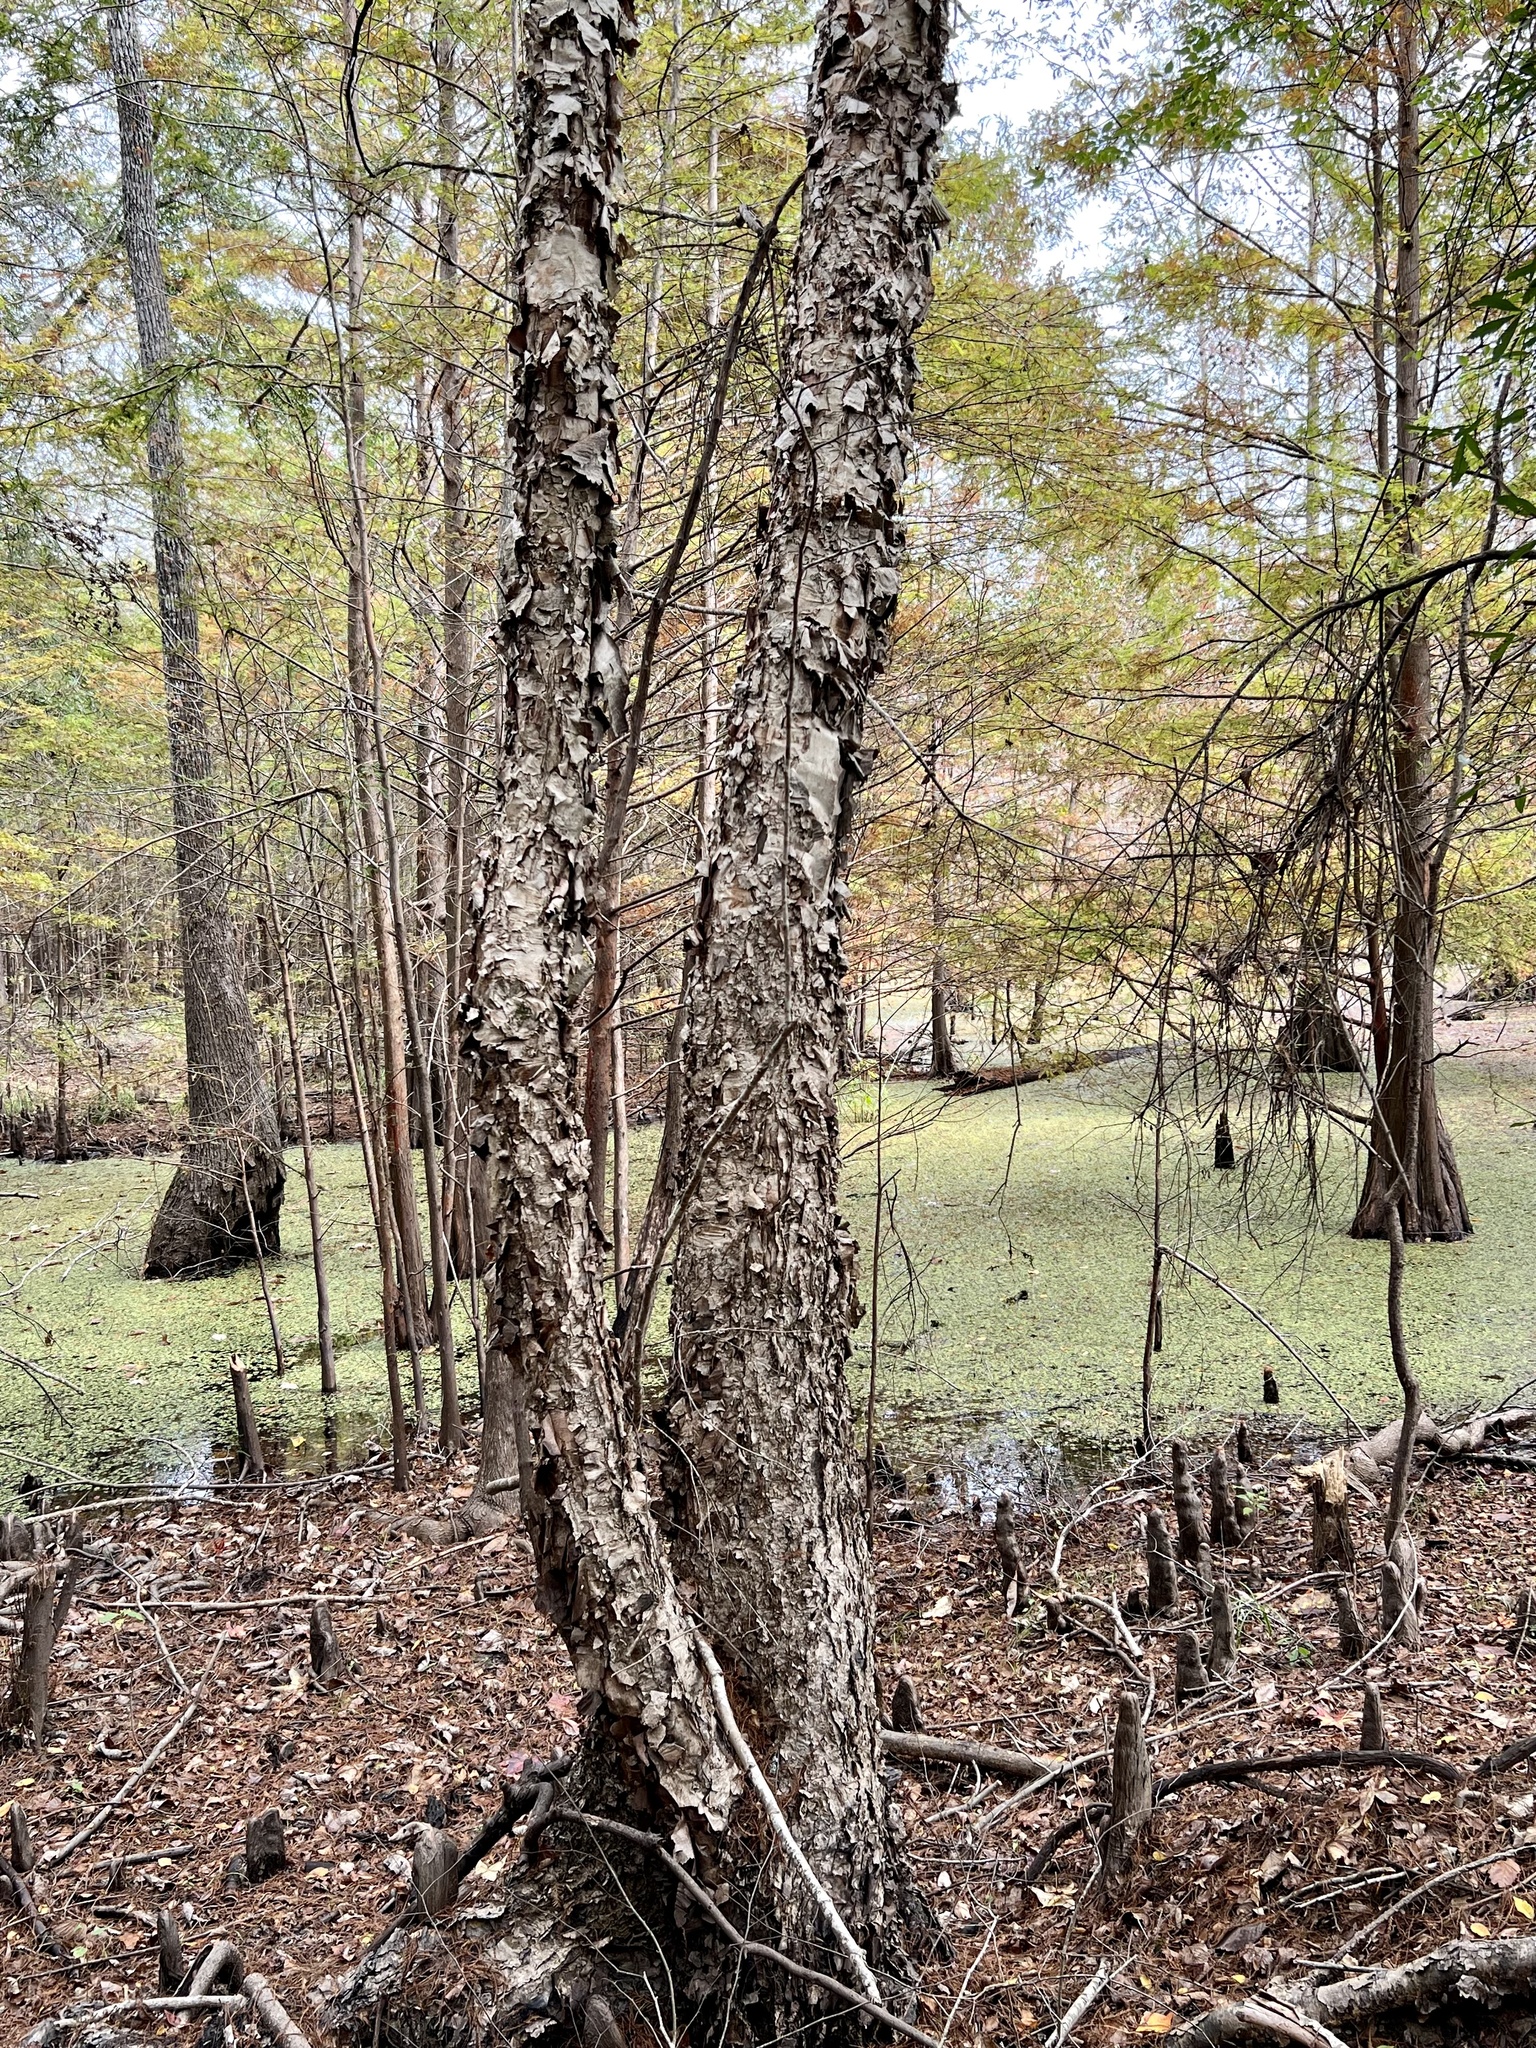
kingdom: Plantae
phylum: Tracheophyta
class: Magnoliopsida
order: Fagales
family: Betulaceae
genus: Betula
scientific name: Betula nigra
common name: Black birch
